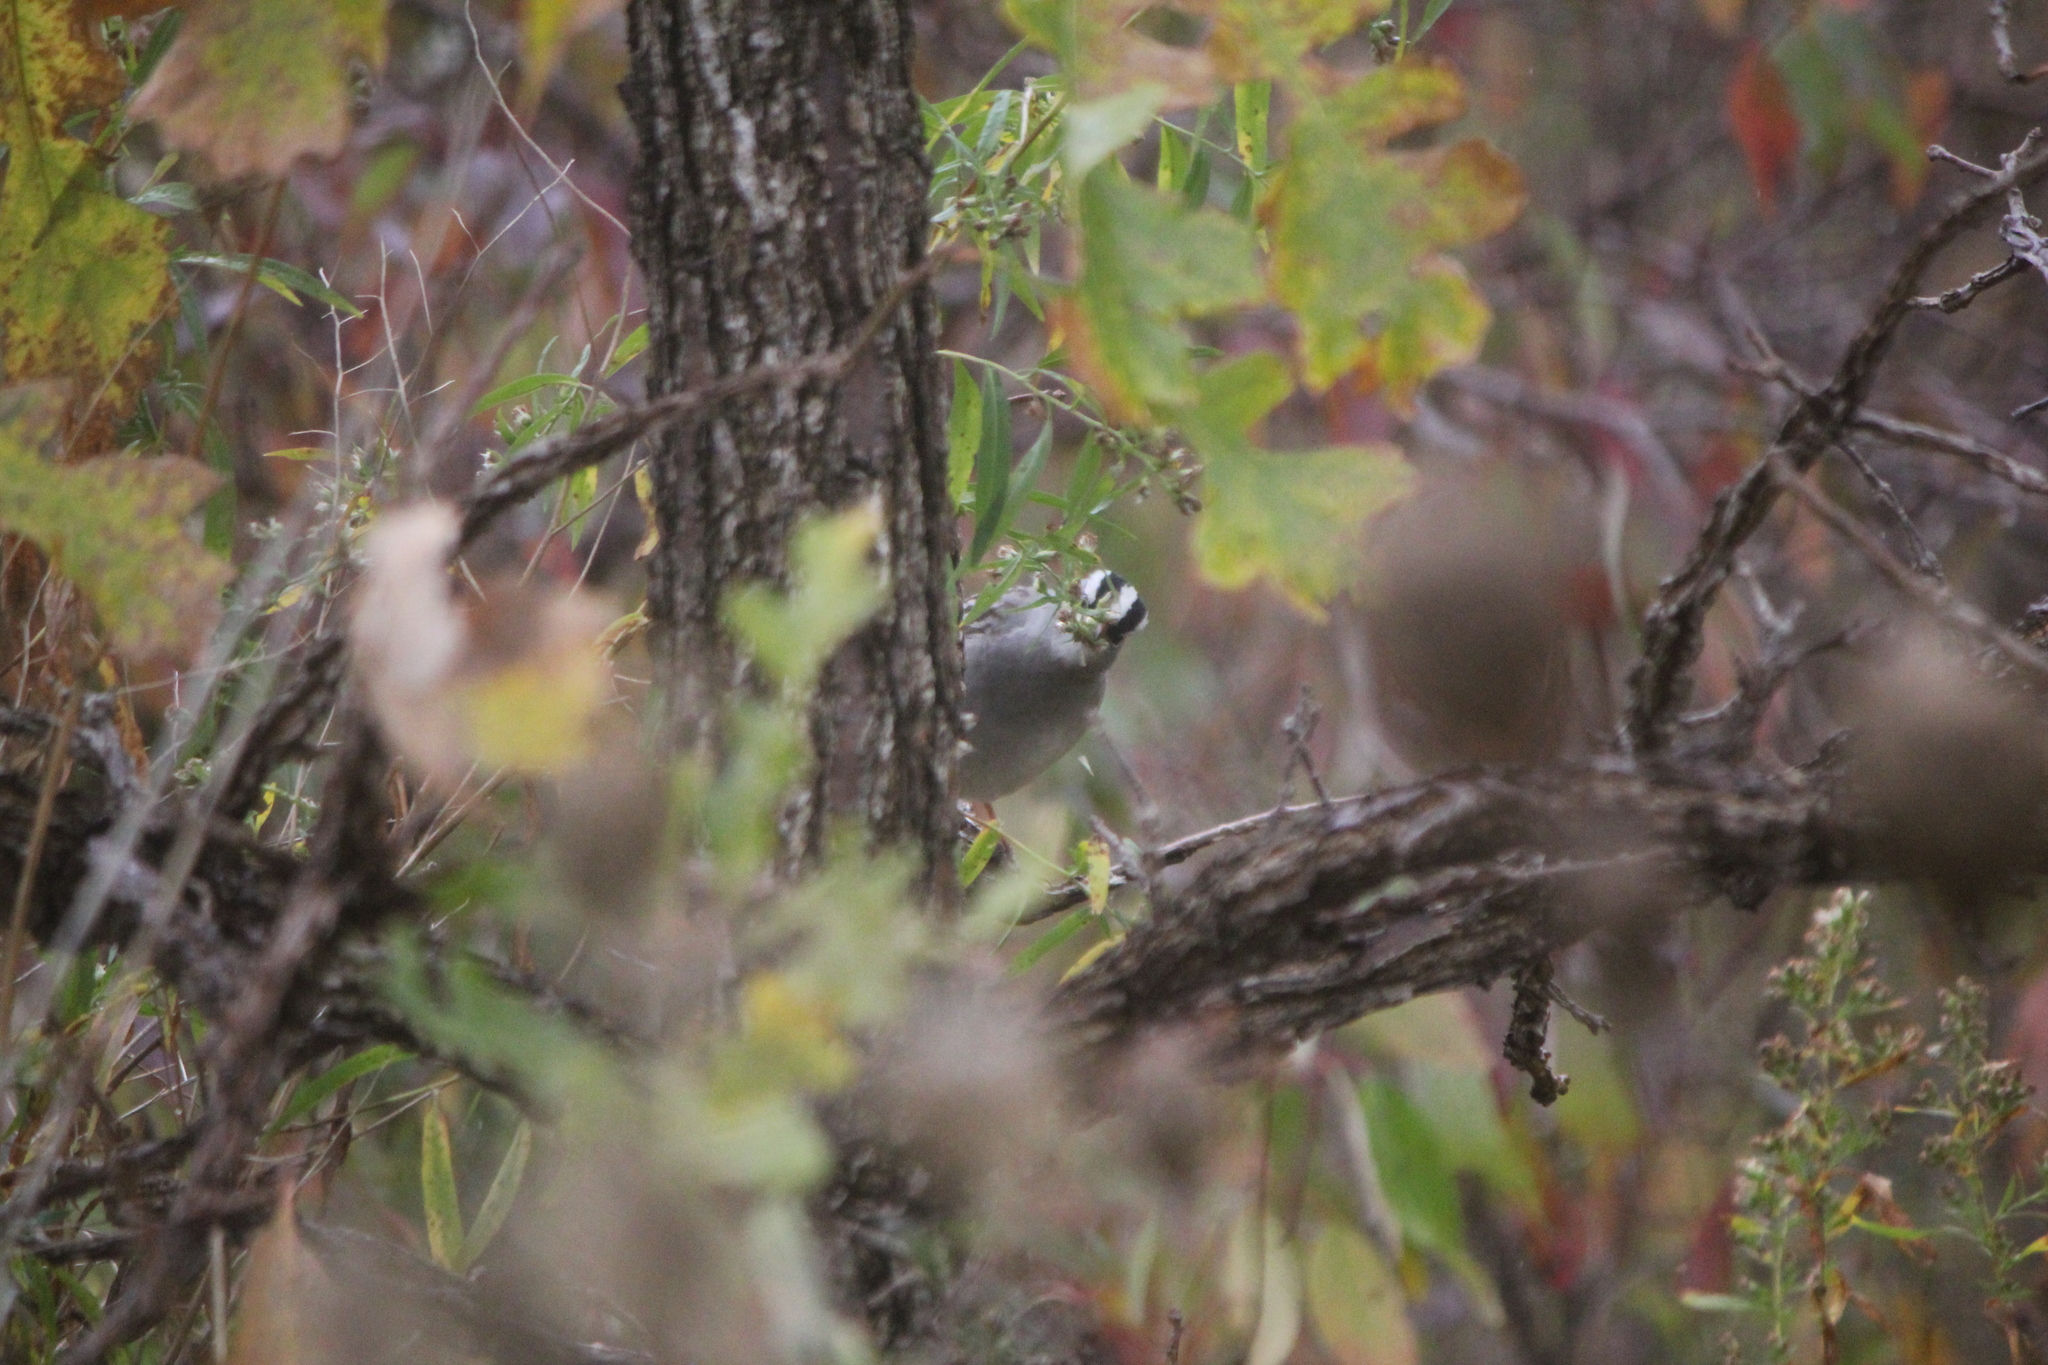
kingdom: Animalia
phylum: Chordata
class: Aves
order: Passeriformes
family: Passerellidae
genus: Zonotrichia
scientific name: Zonotrichia leucophrys
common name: White-crowned sparrow
